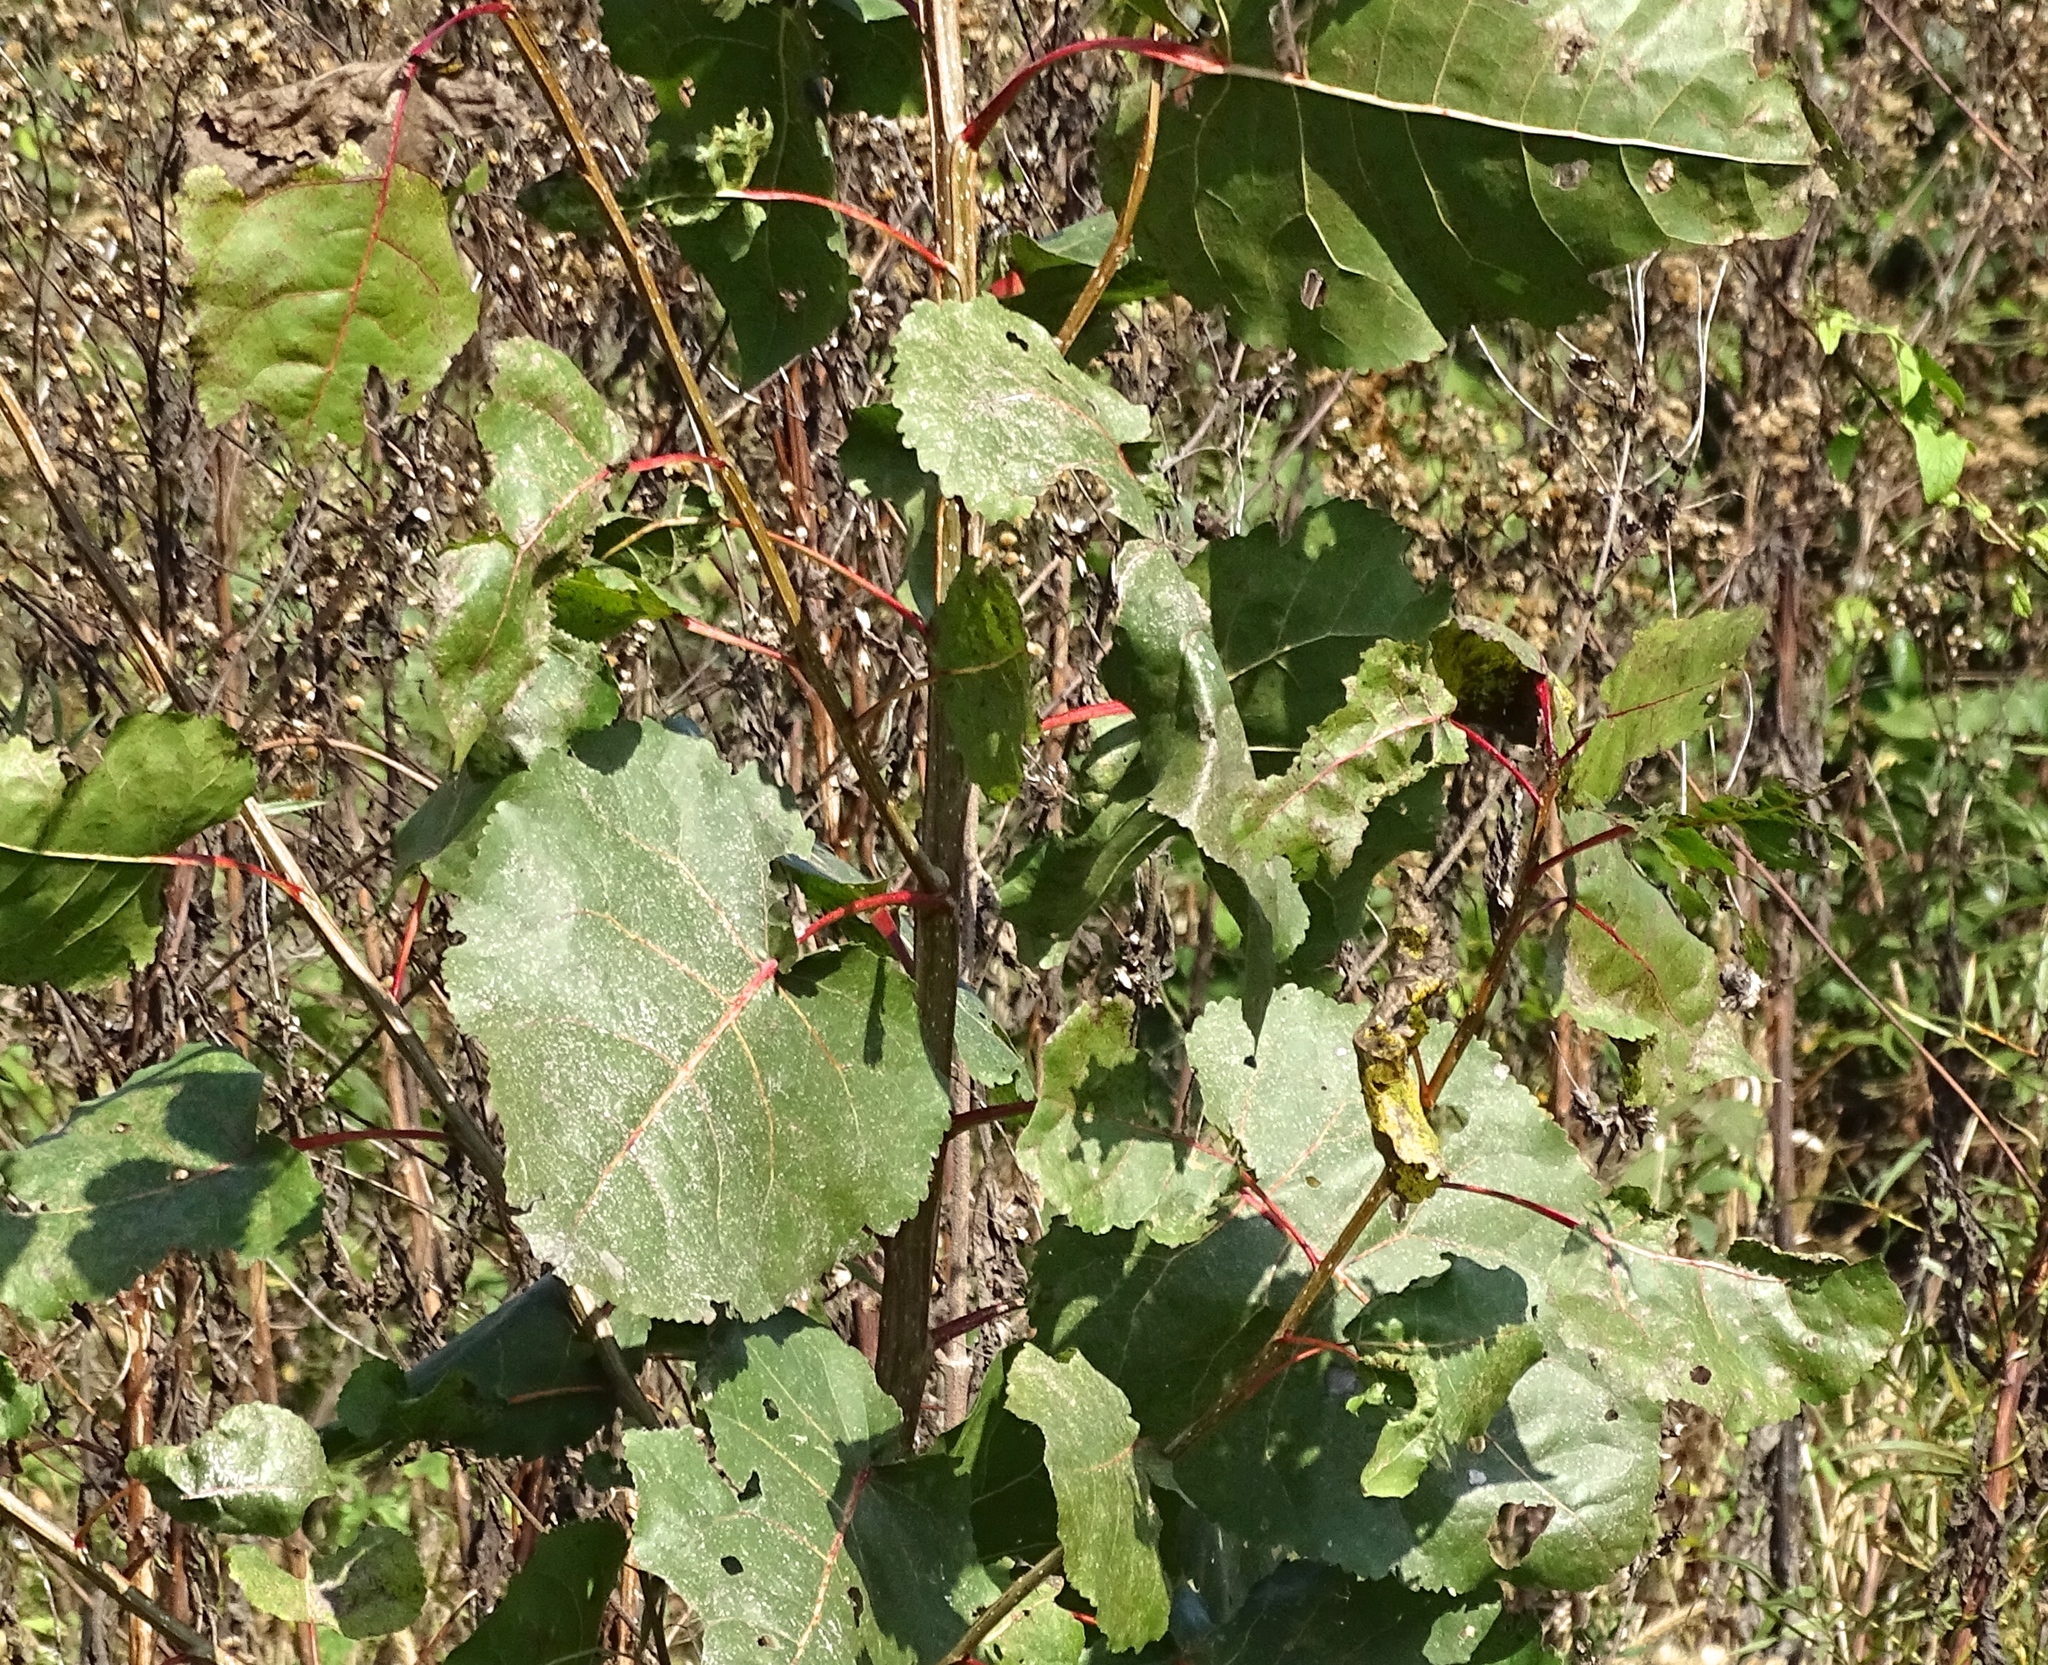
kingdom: Plantae
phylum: Tracheophyta
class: Magnoliopsida
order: Malpighiales
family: Salicaceae
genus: Populus
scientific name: Populus deltoides
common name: Eastern cottonwood
